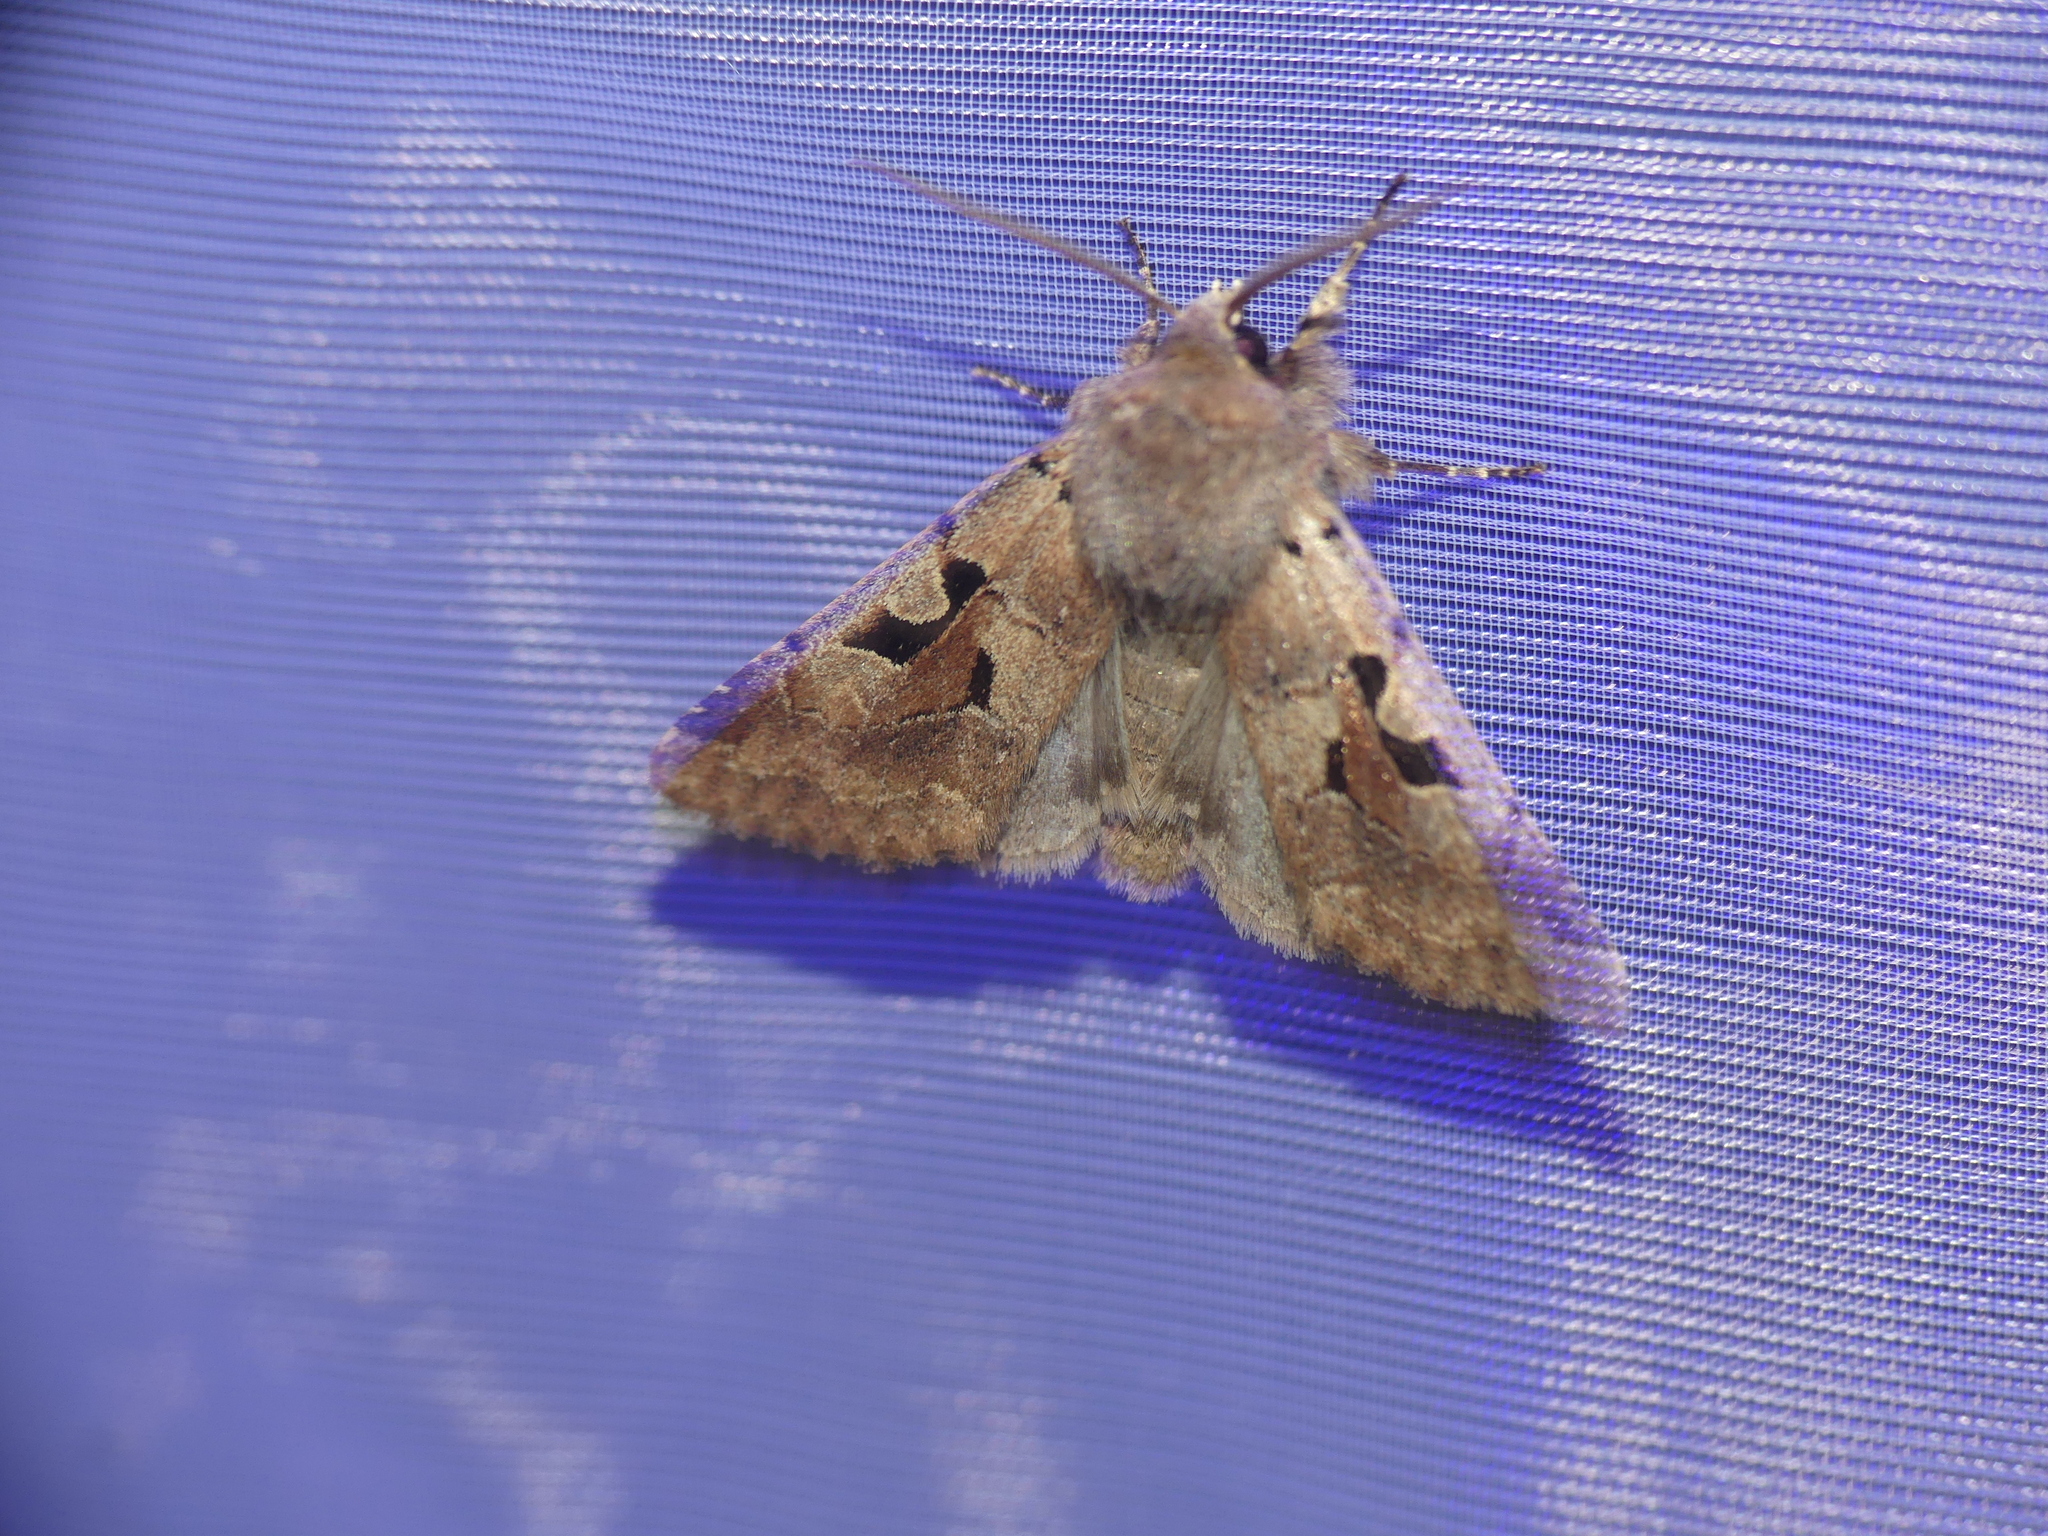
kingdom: Animalia
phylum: Arthropoda
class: Insecta
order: Lepidoptera
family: Noctuidae
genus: Orthosia
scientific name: Orthosia gothica
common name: Hebrew character
